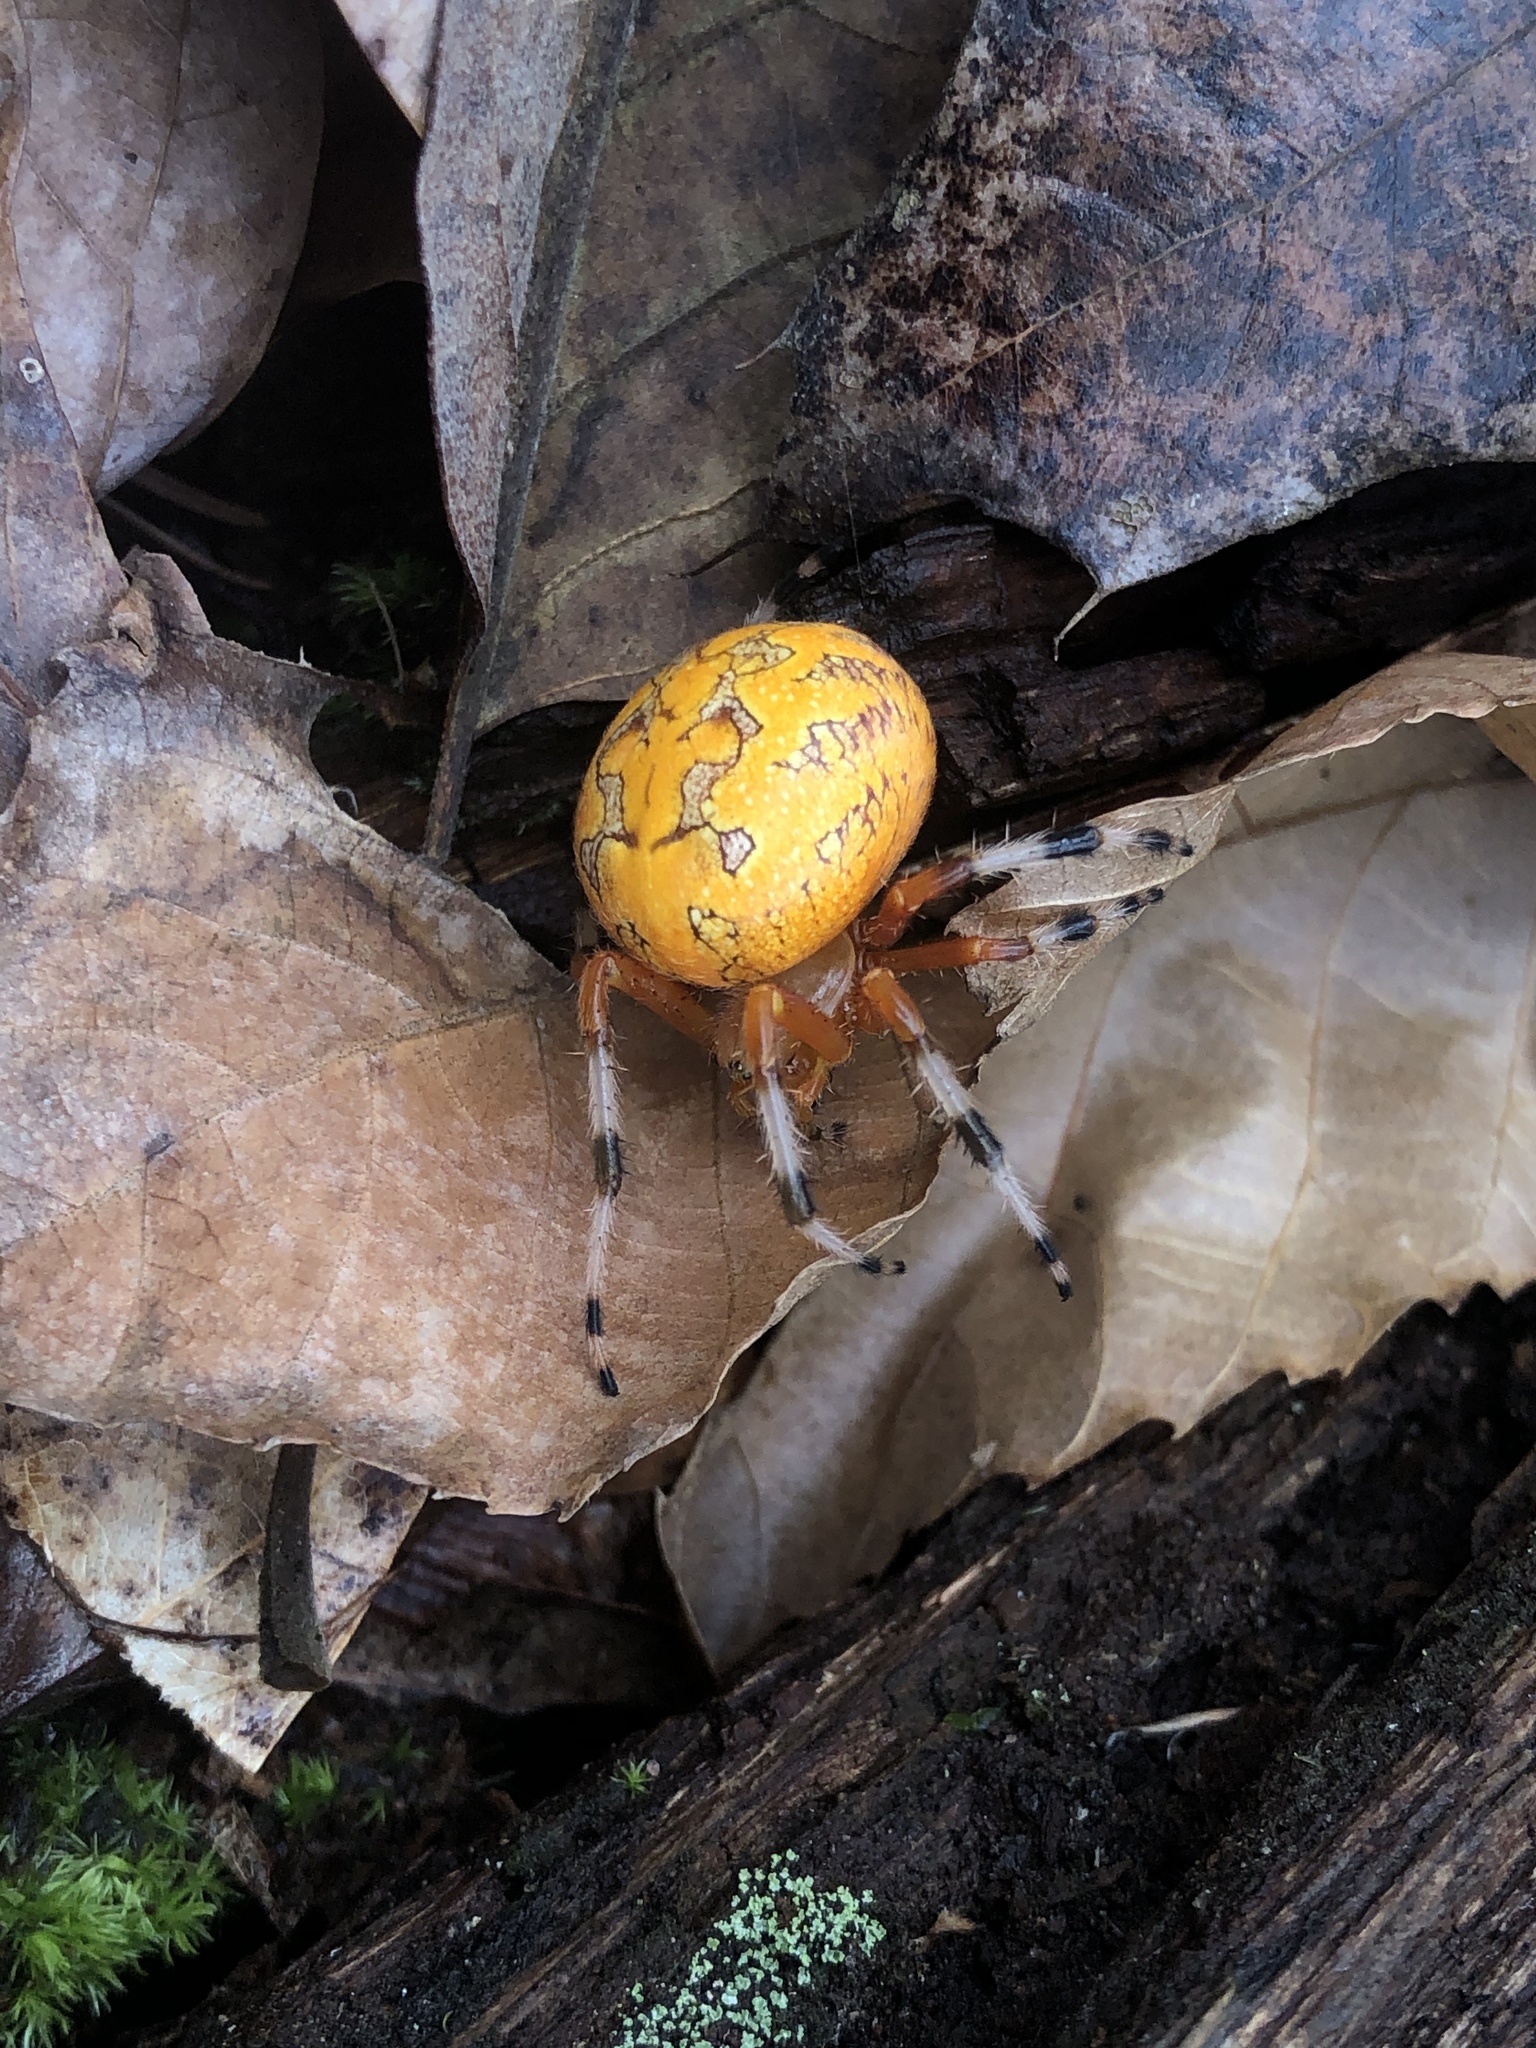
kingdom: Animalia
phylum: Arthropoda
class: Arachnida
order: Araneae
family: Araneidae
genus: Araneus
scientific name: Araneus marmoreus
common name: Marbled orbweaver
